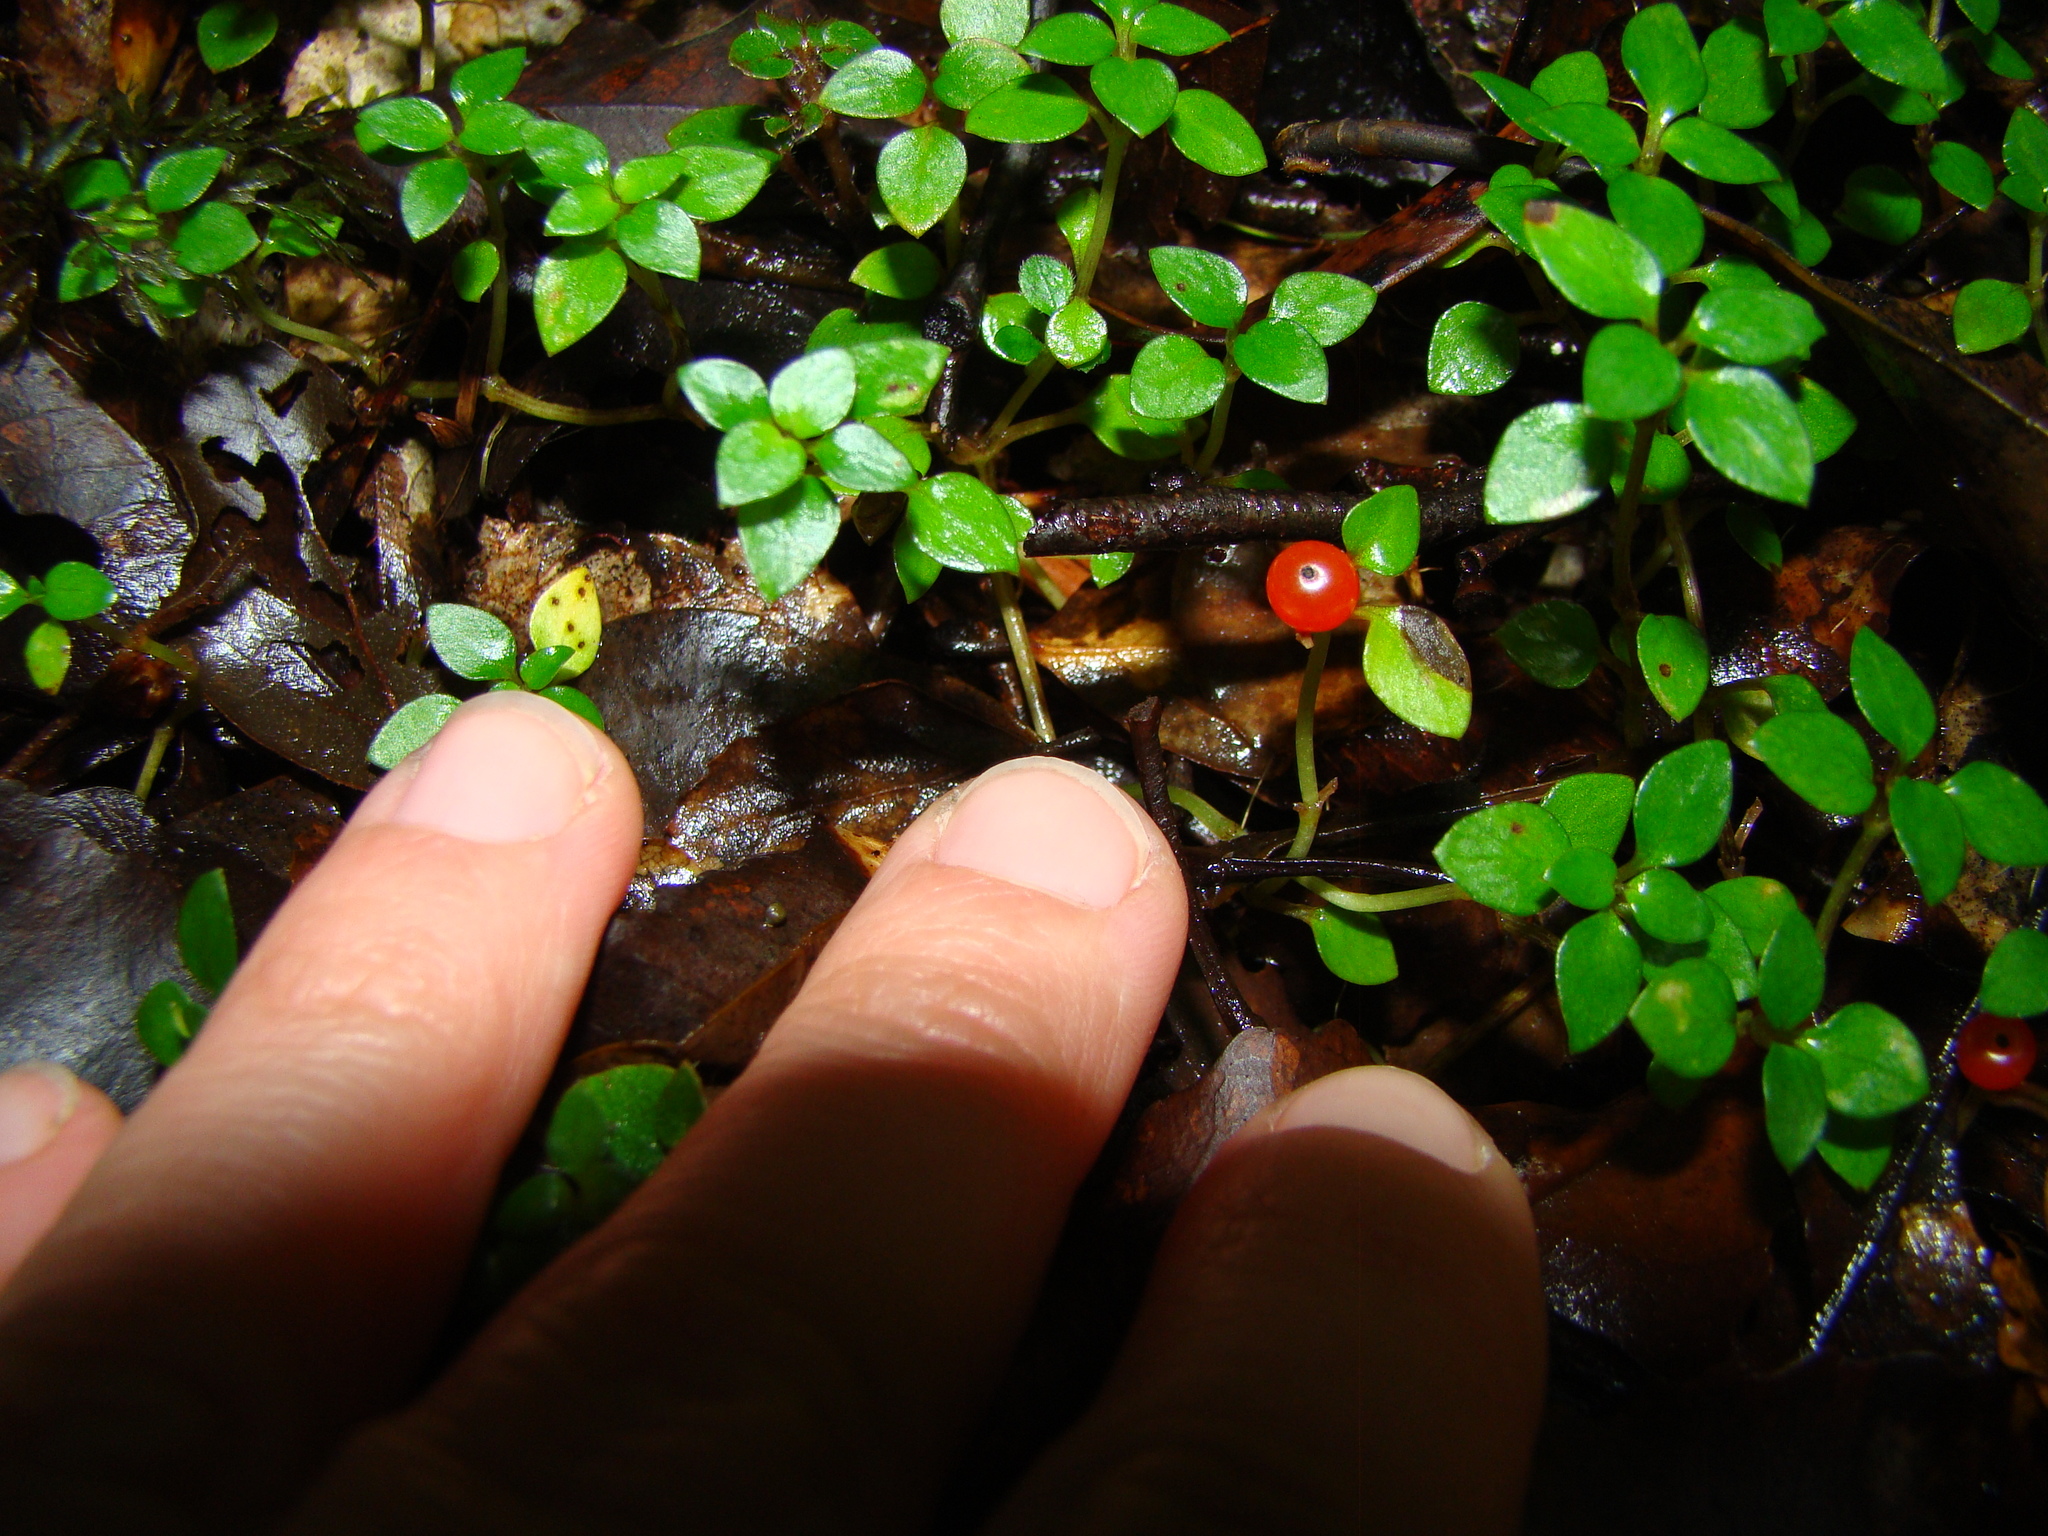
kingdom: Plantae
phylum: Tracheophyta
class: Magnoliopsida
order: Gentianales
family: Rubiaceae
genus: Nertera
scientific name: Nertera granadensis
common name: Beadplant
